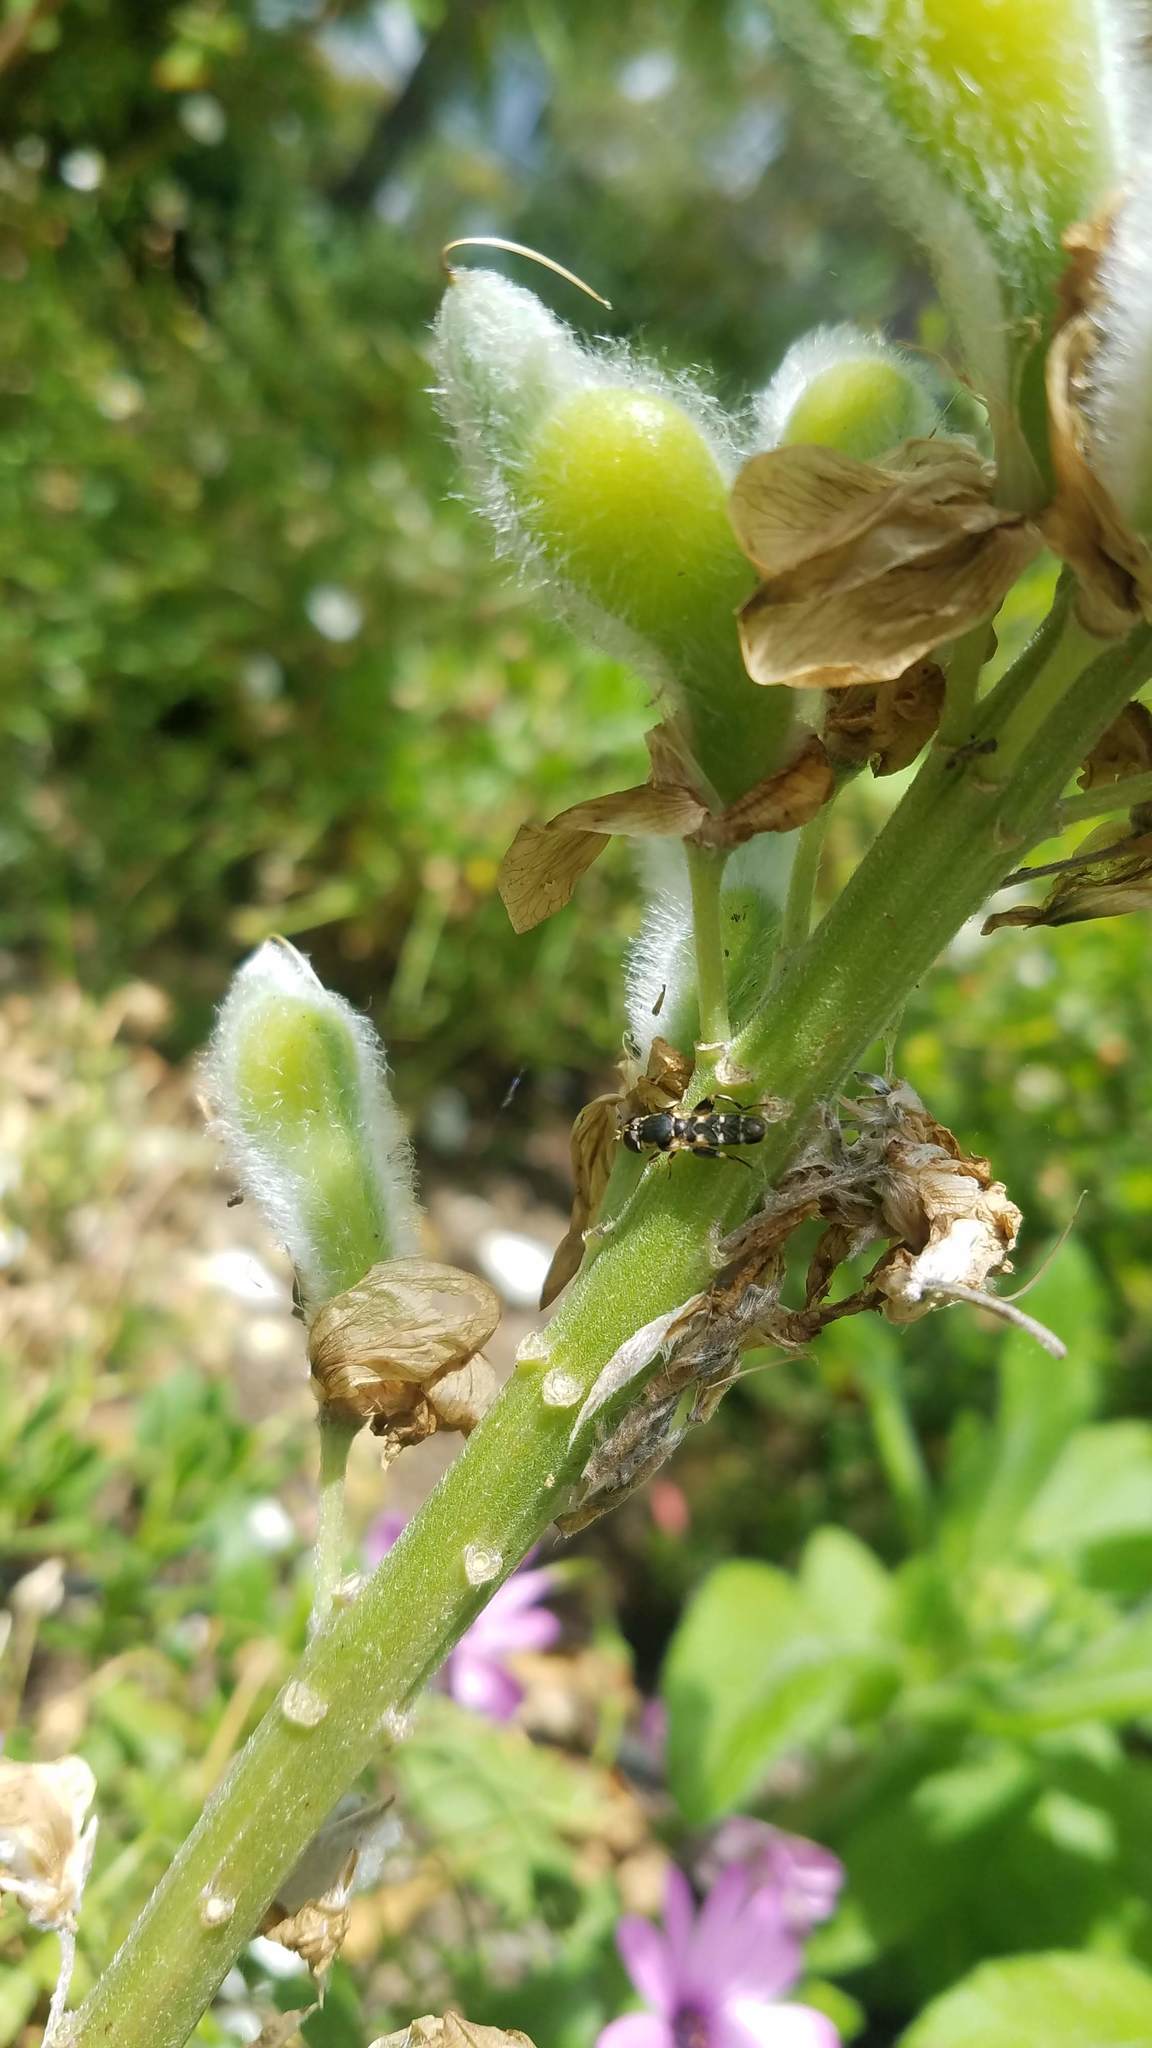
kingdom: Animalia
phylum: Arthropoda
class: Insecta
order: Diptera
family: Syrphidae
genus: Syritta
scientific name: Syritta pipiens
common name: Hover fly
